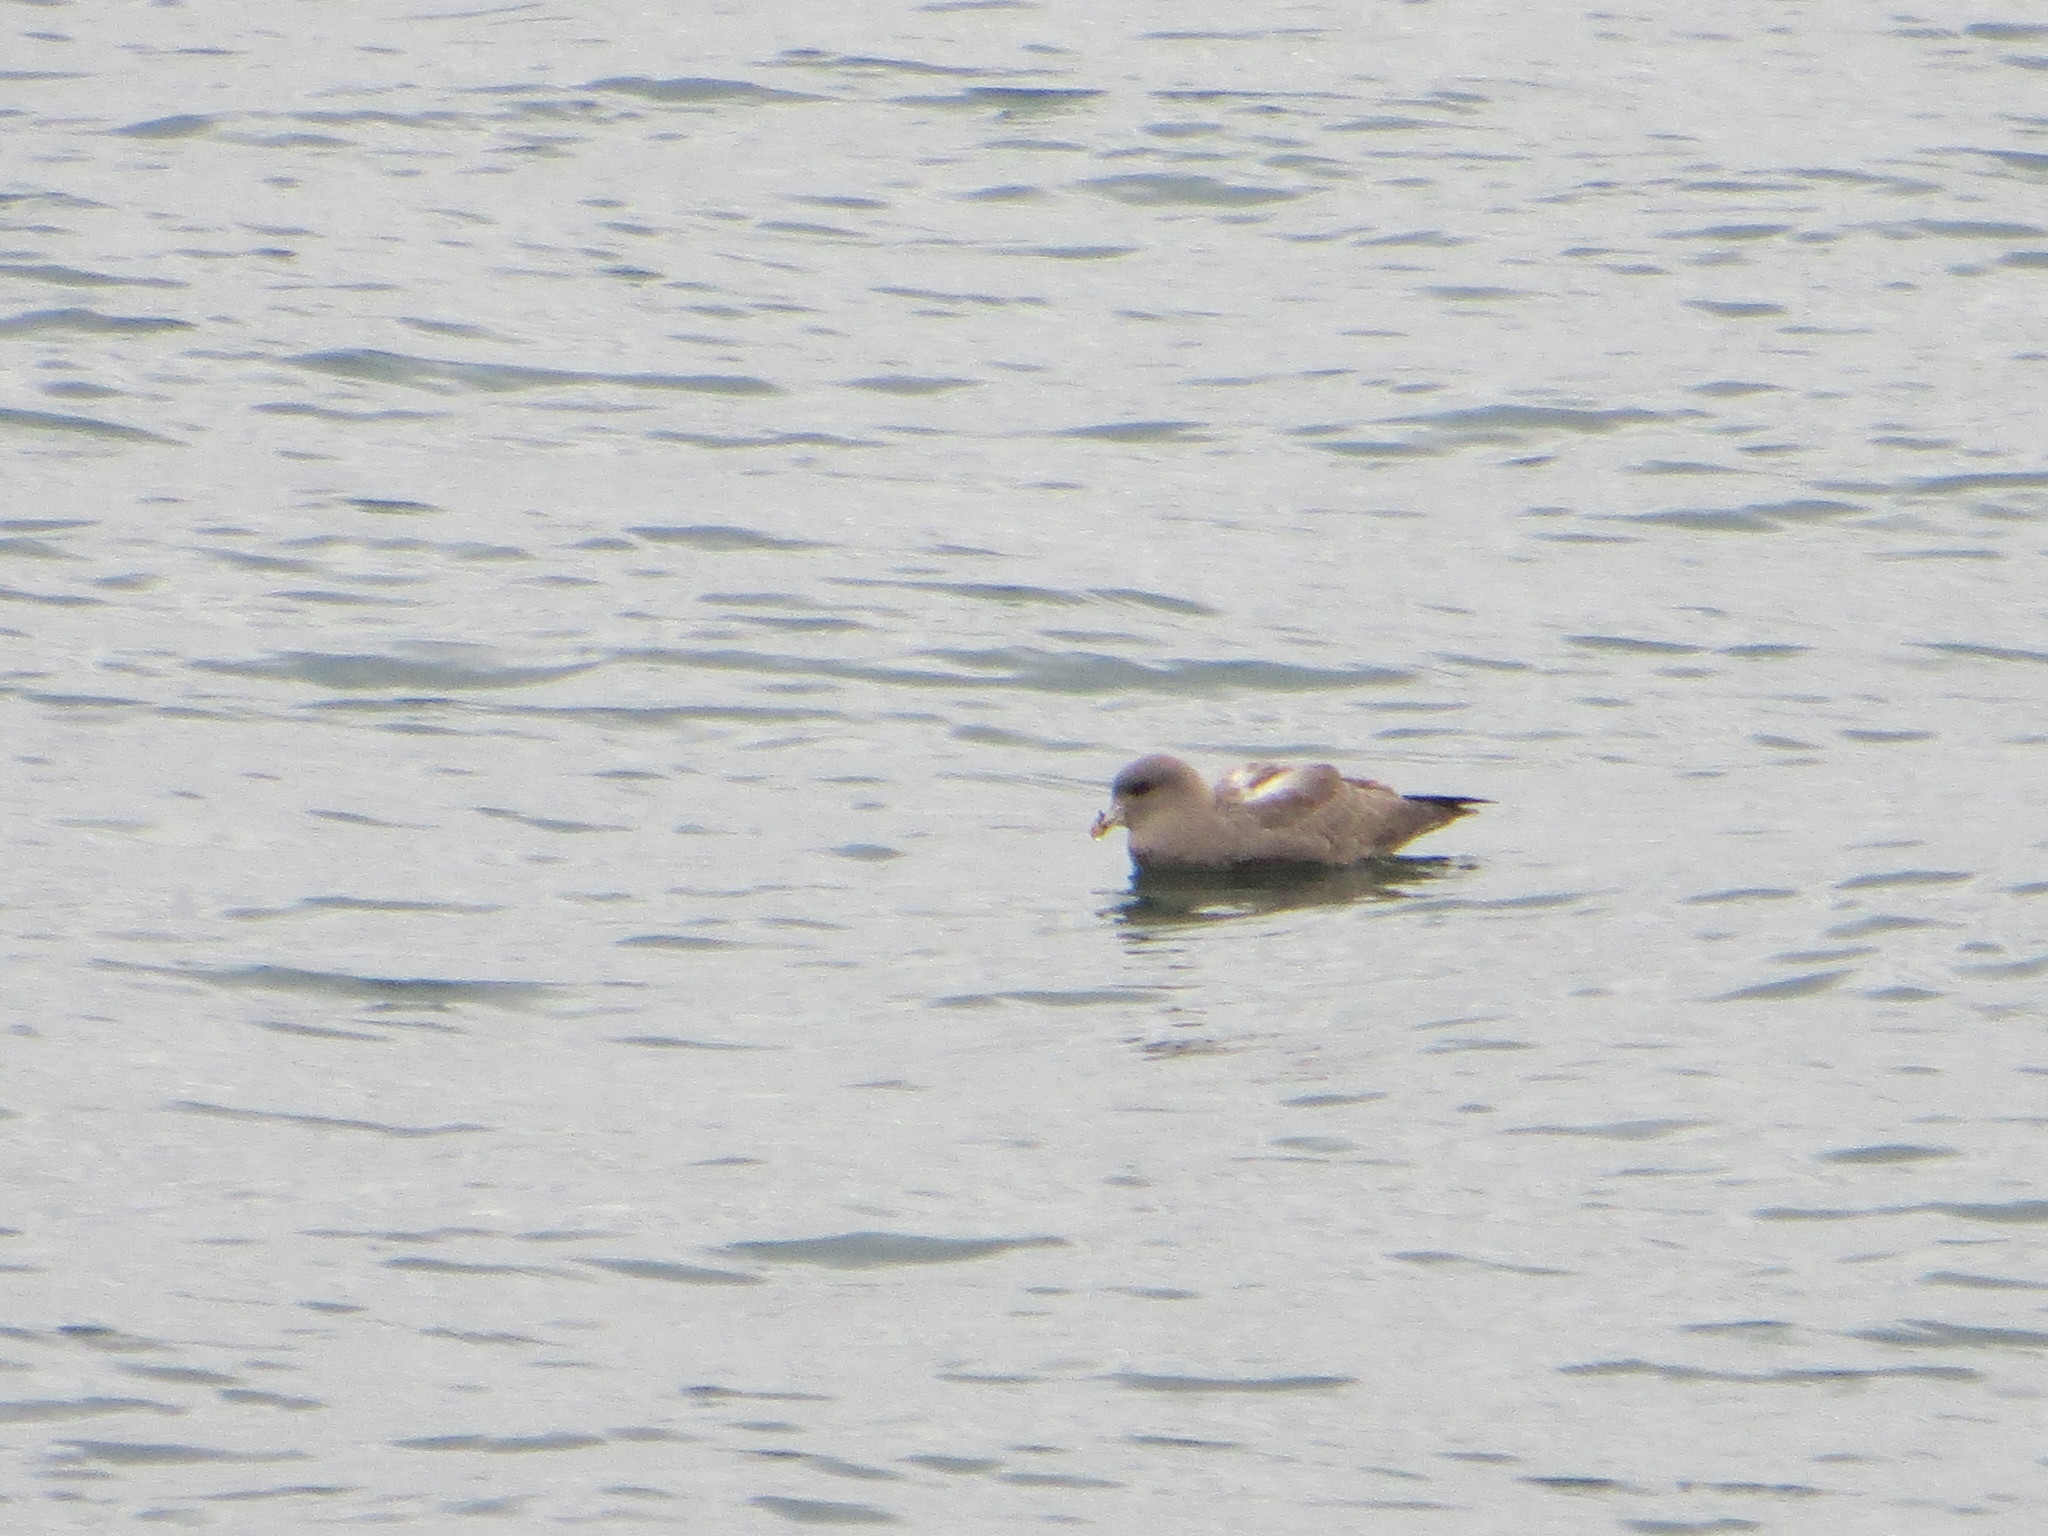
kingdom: Animalia
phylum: Chordata
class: Aves
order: Procellariiformes
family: Procellariidae
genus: Fulmarus
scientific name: Fulmarus glacialis
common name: Northern fulmar
